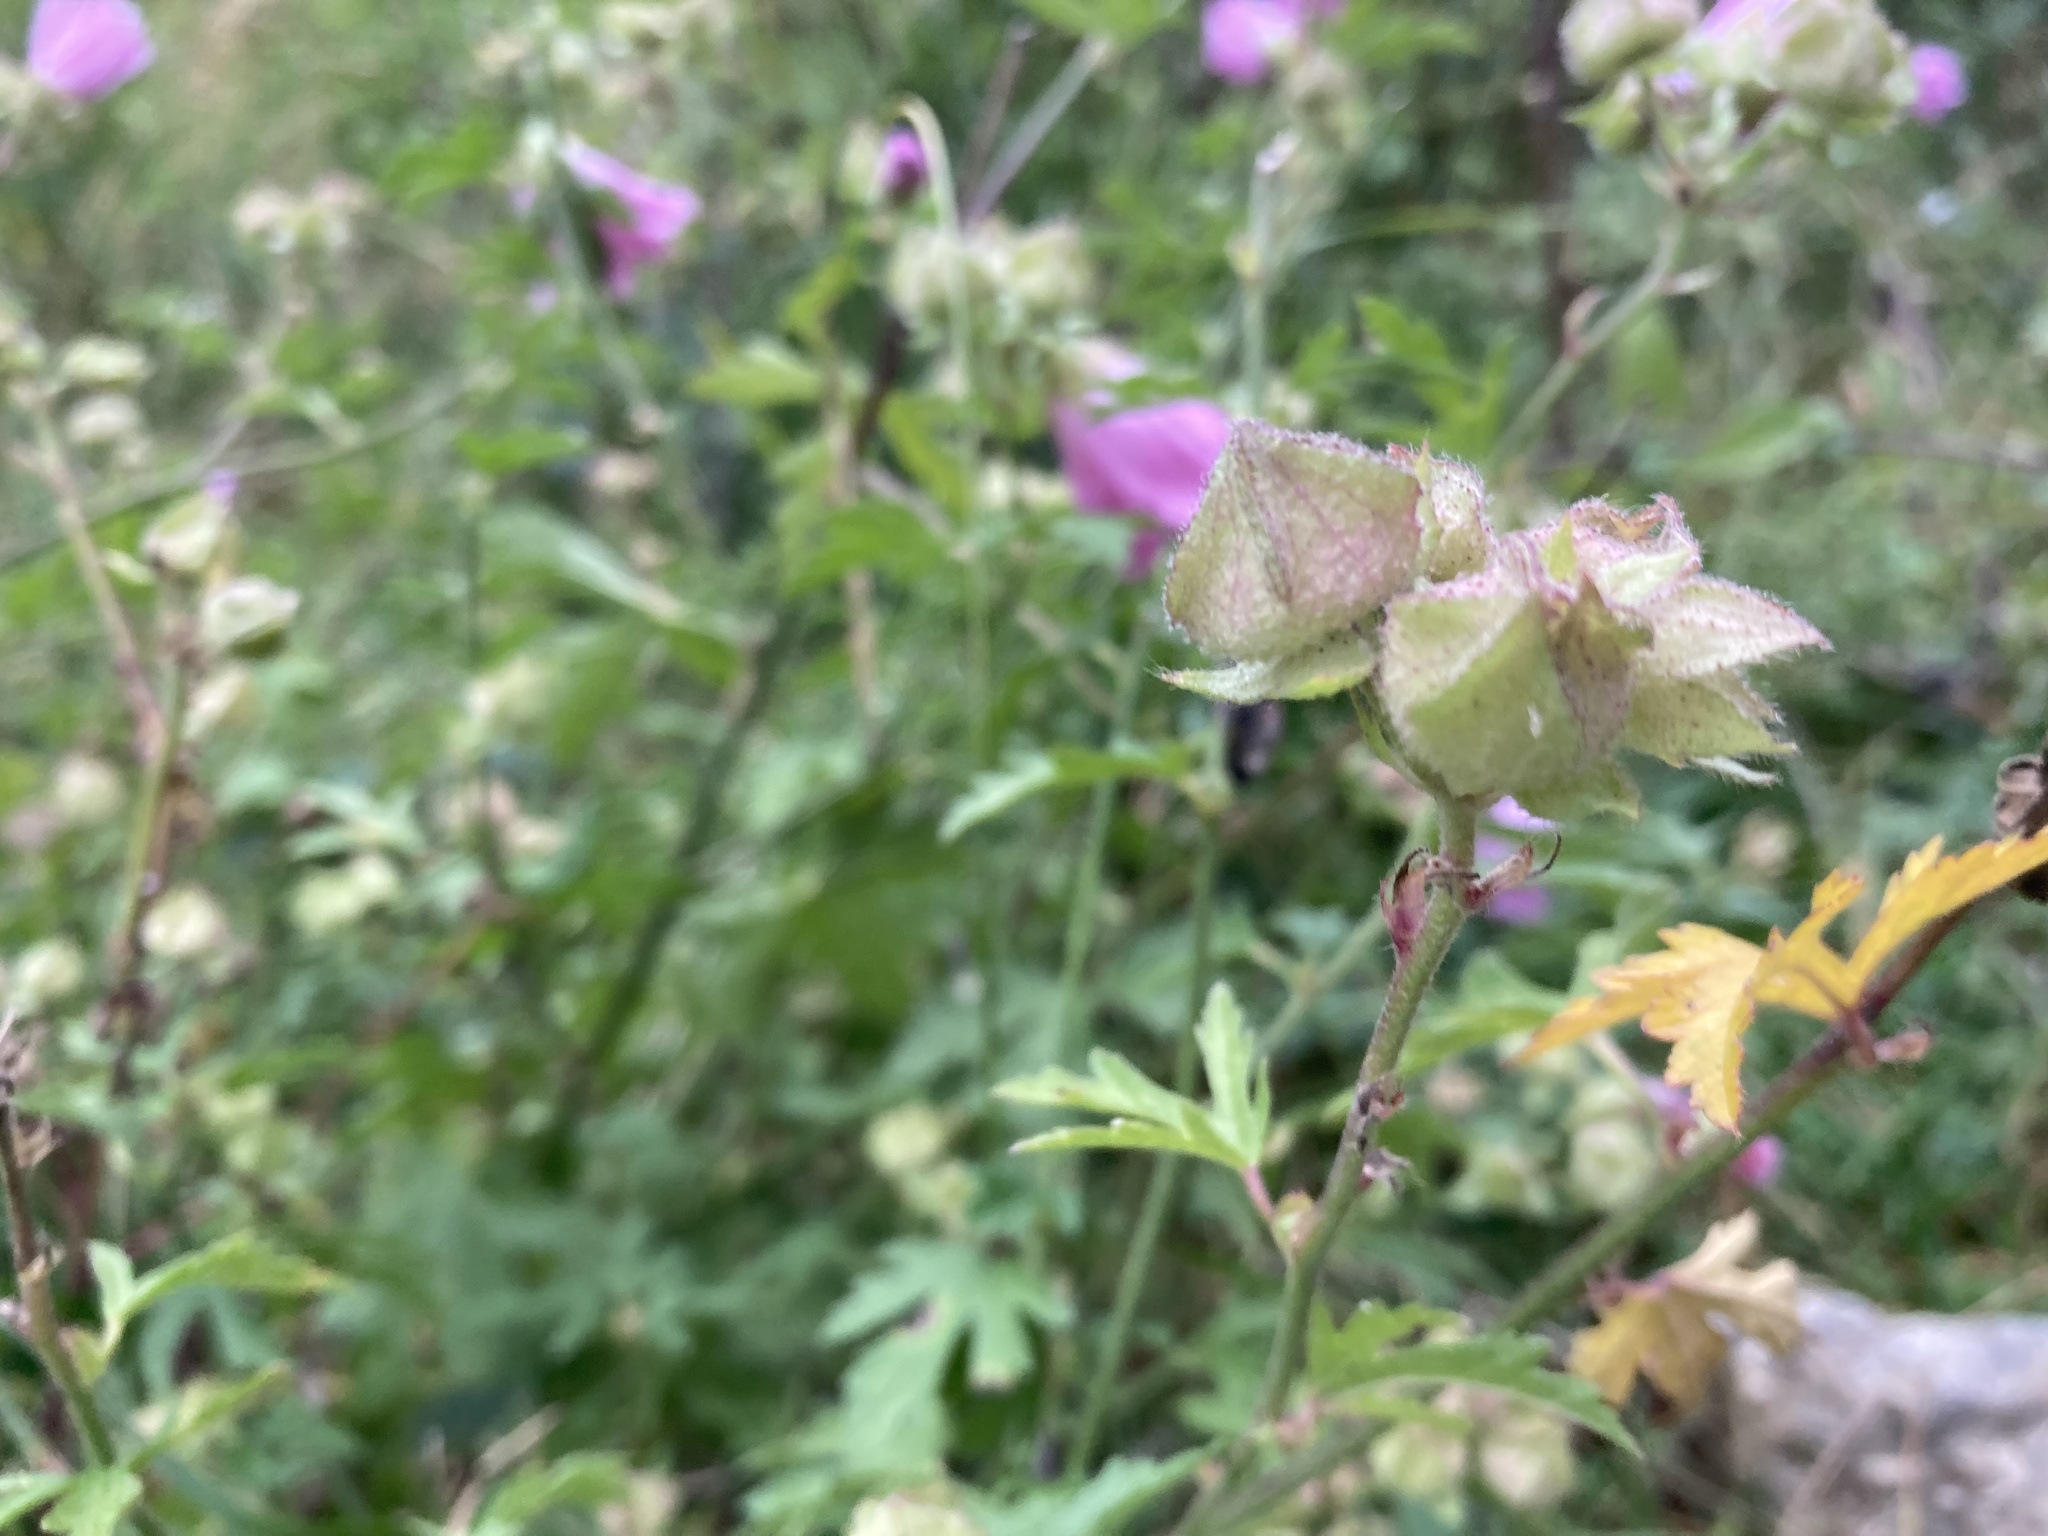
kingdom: Plantae
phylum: Tracheophyta
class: Magnoliopsida
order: Malvales
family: Malvaceae
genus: Malva
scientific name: Malva alcea
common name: Greater musk-mallow
